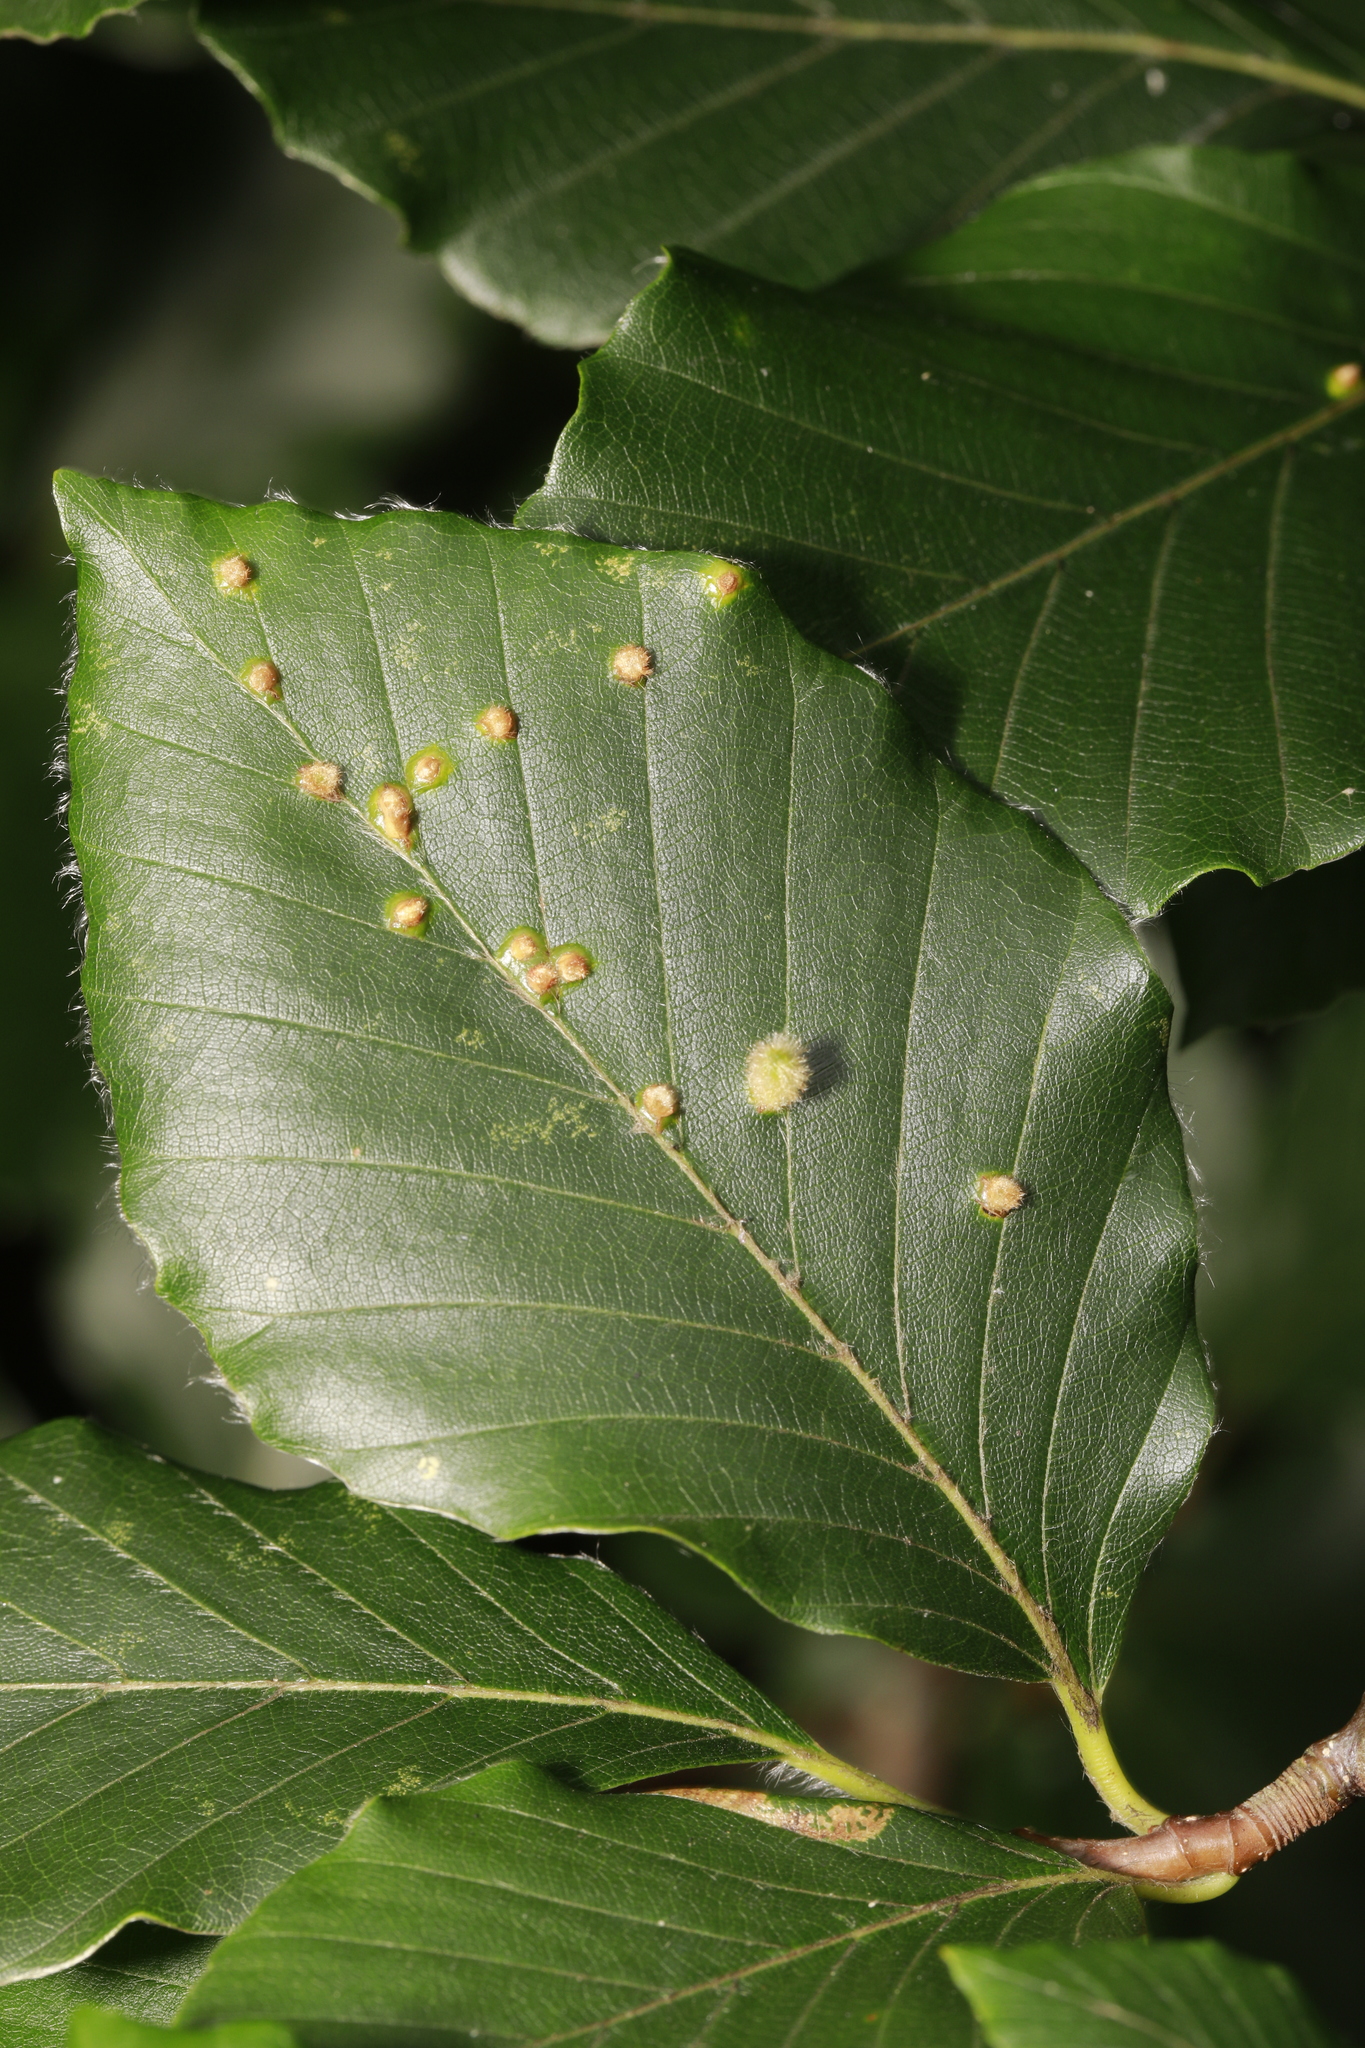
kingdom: Animalia
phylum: Arthropoda
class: Insecta
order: Diptera
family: Cecidomyiidae
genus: Hartigiola
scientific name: Hartigiola annulipes
